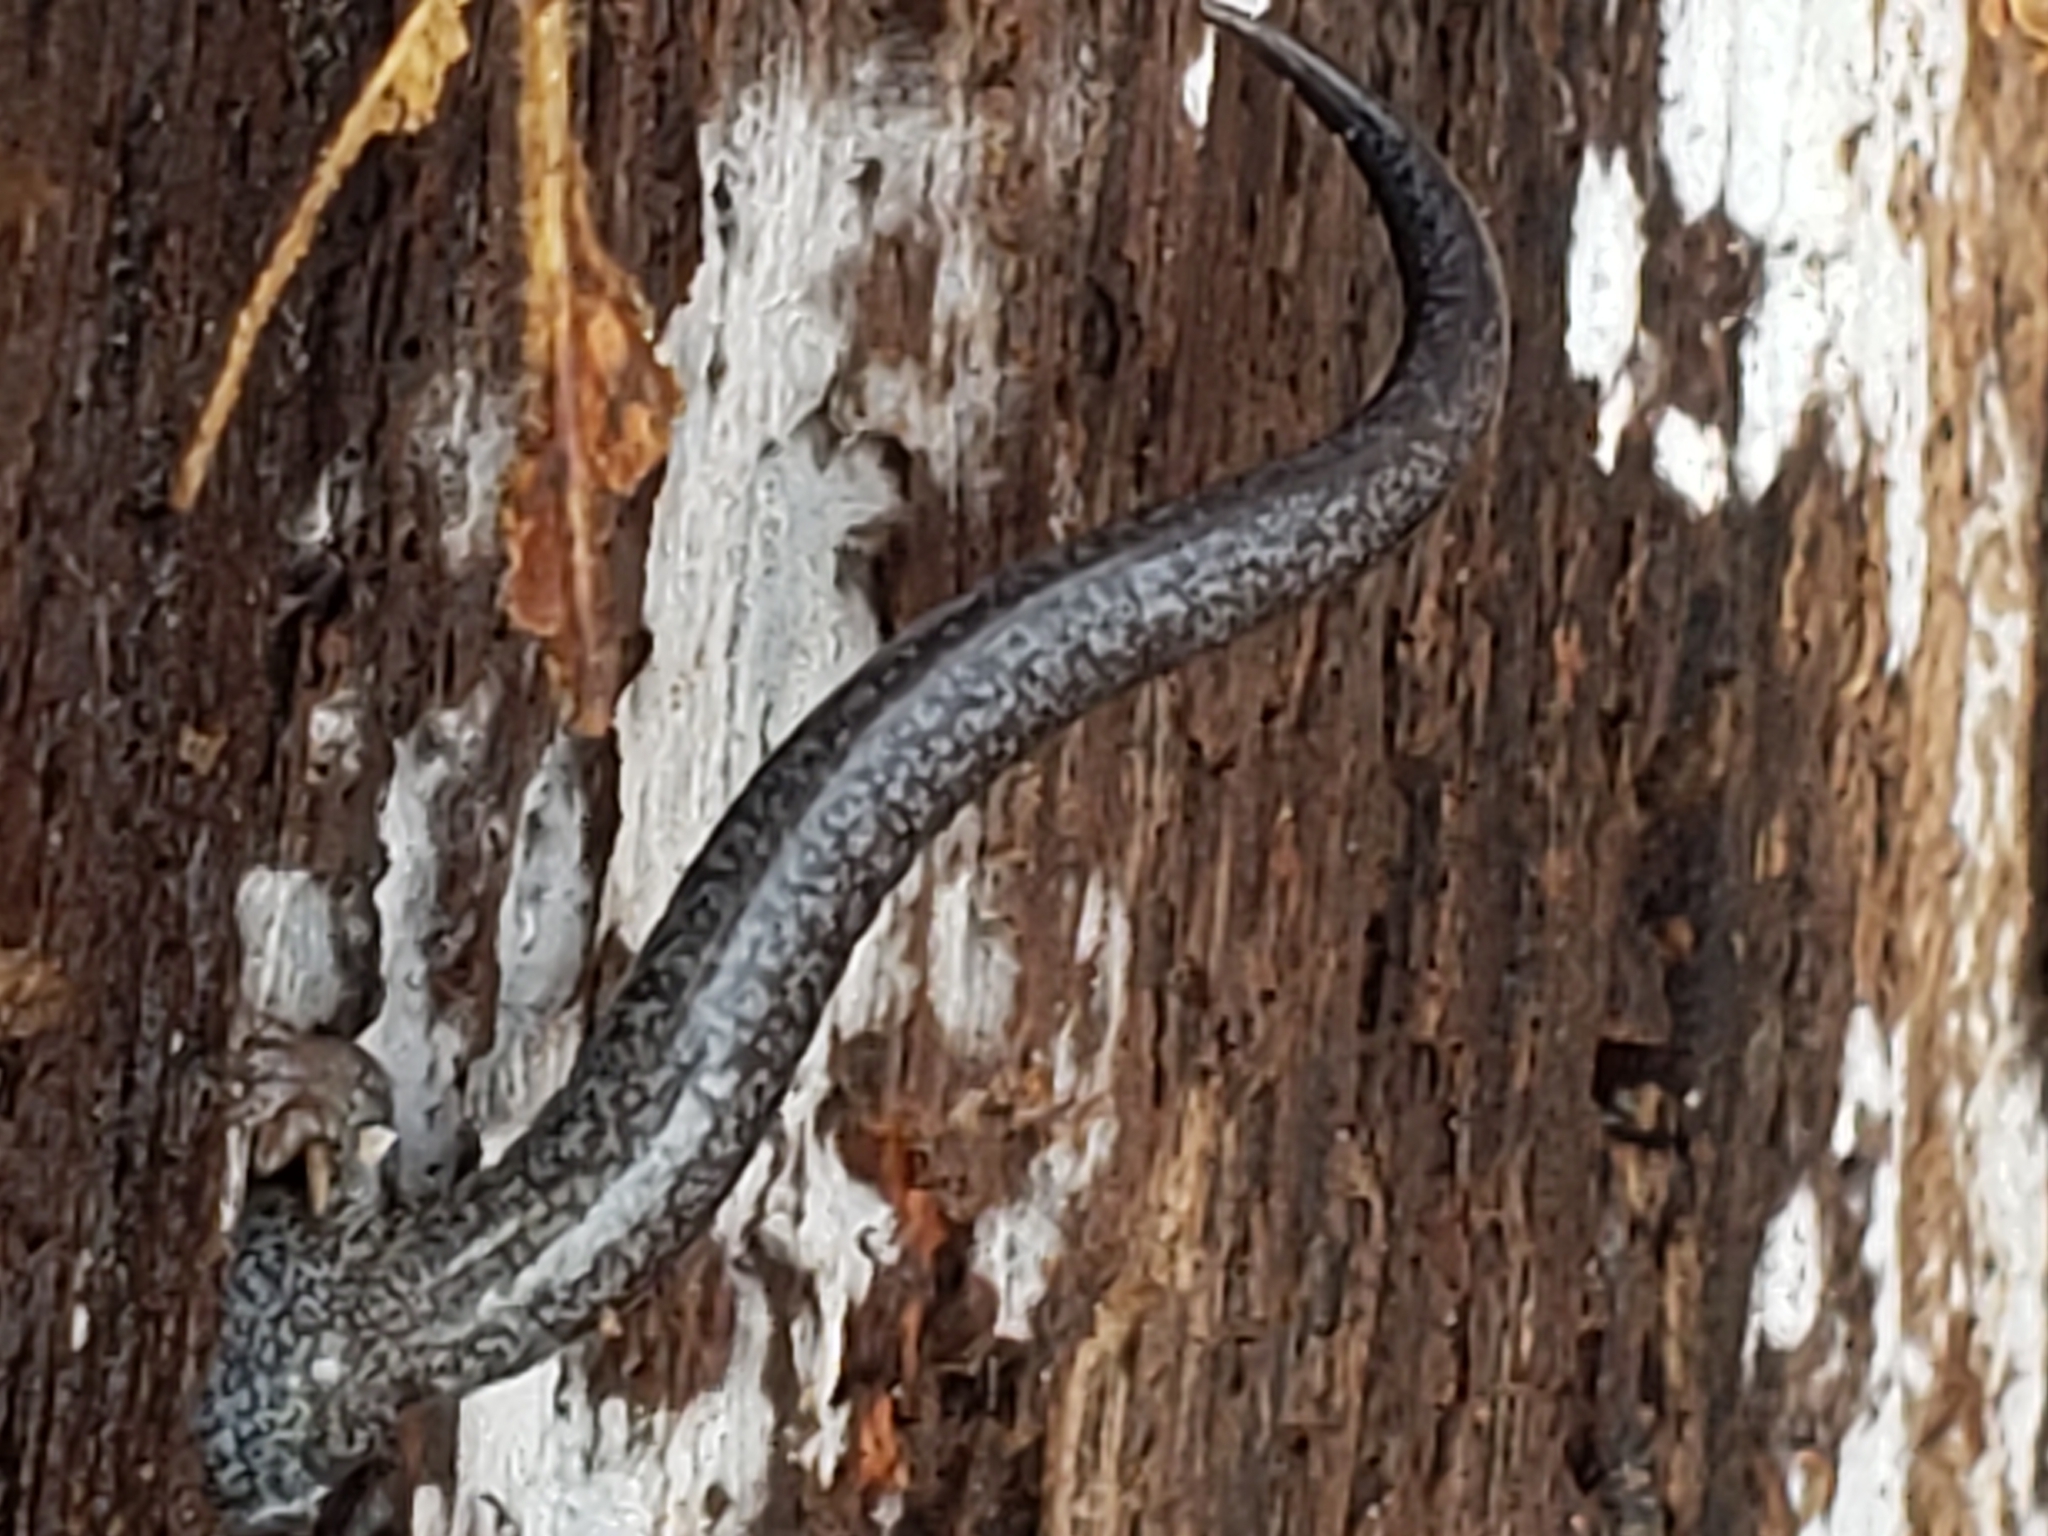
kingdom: Animalia
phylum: Chordata
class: Amphibia
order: Caudata
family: Plethodontidae
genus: Plethodon
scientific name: Plethodon cinereus
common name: Redback salamander
